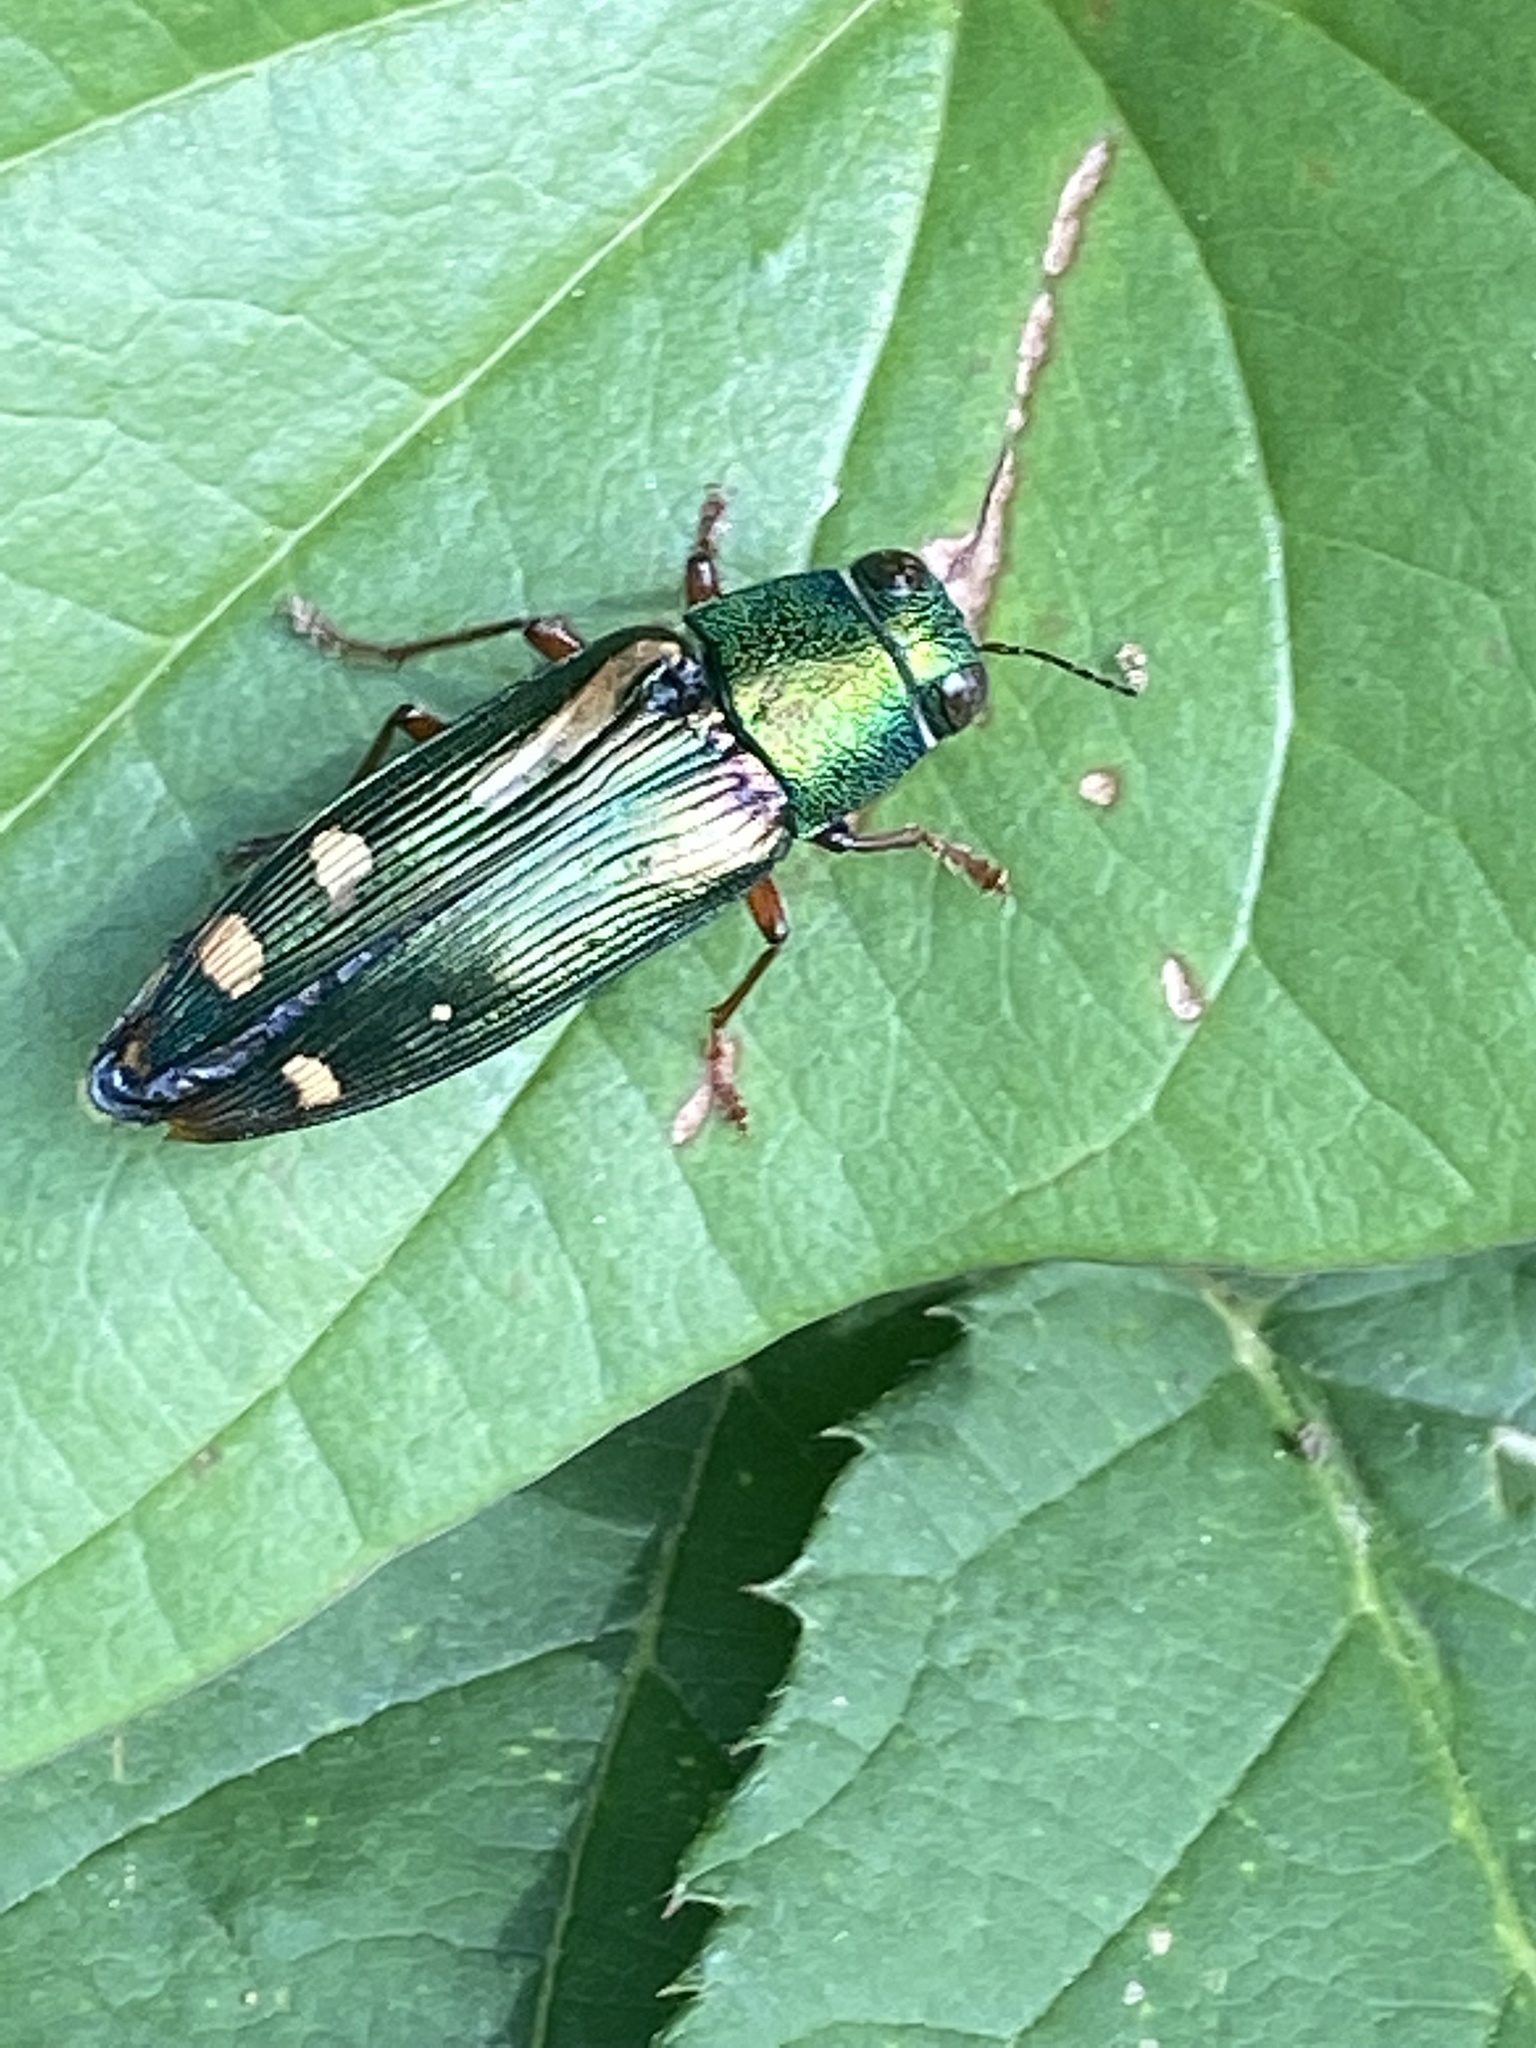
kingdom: Animalia
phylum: Arthropoda
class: Insecta
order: Coleoptera
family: Buprestidae
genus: Buprestis
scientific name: Buprestis rufipes
